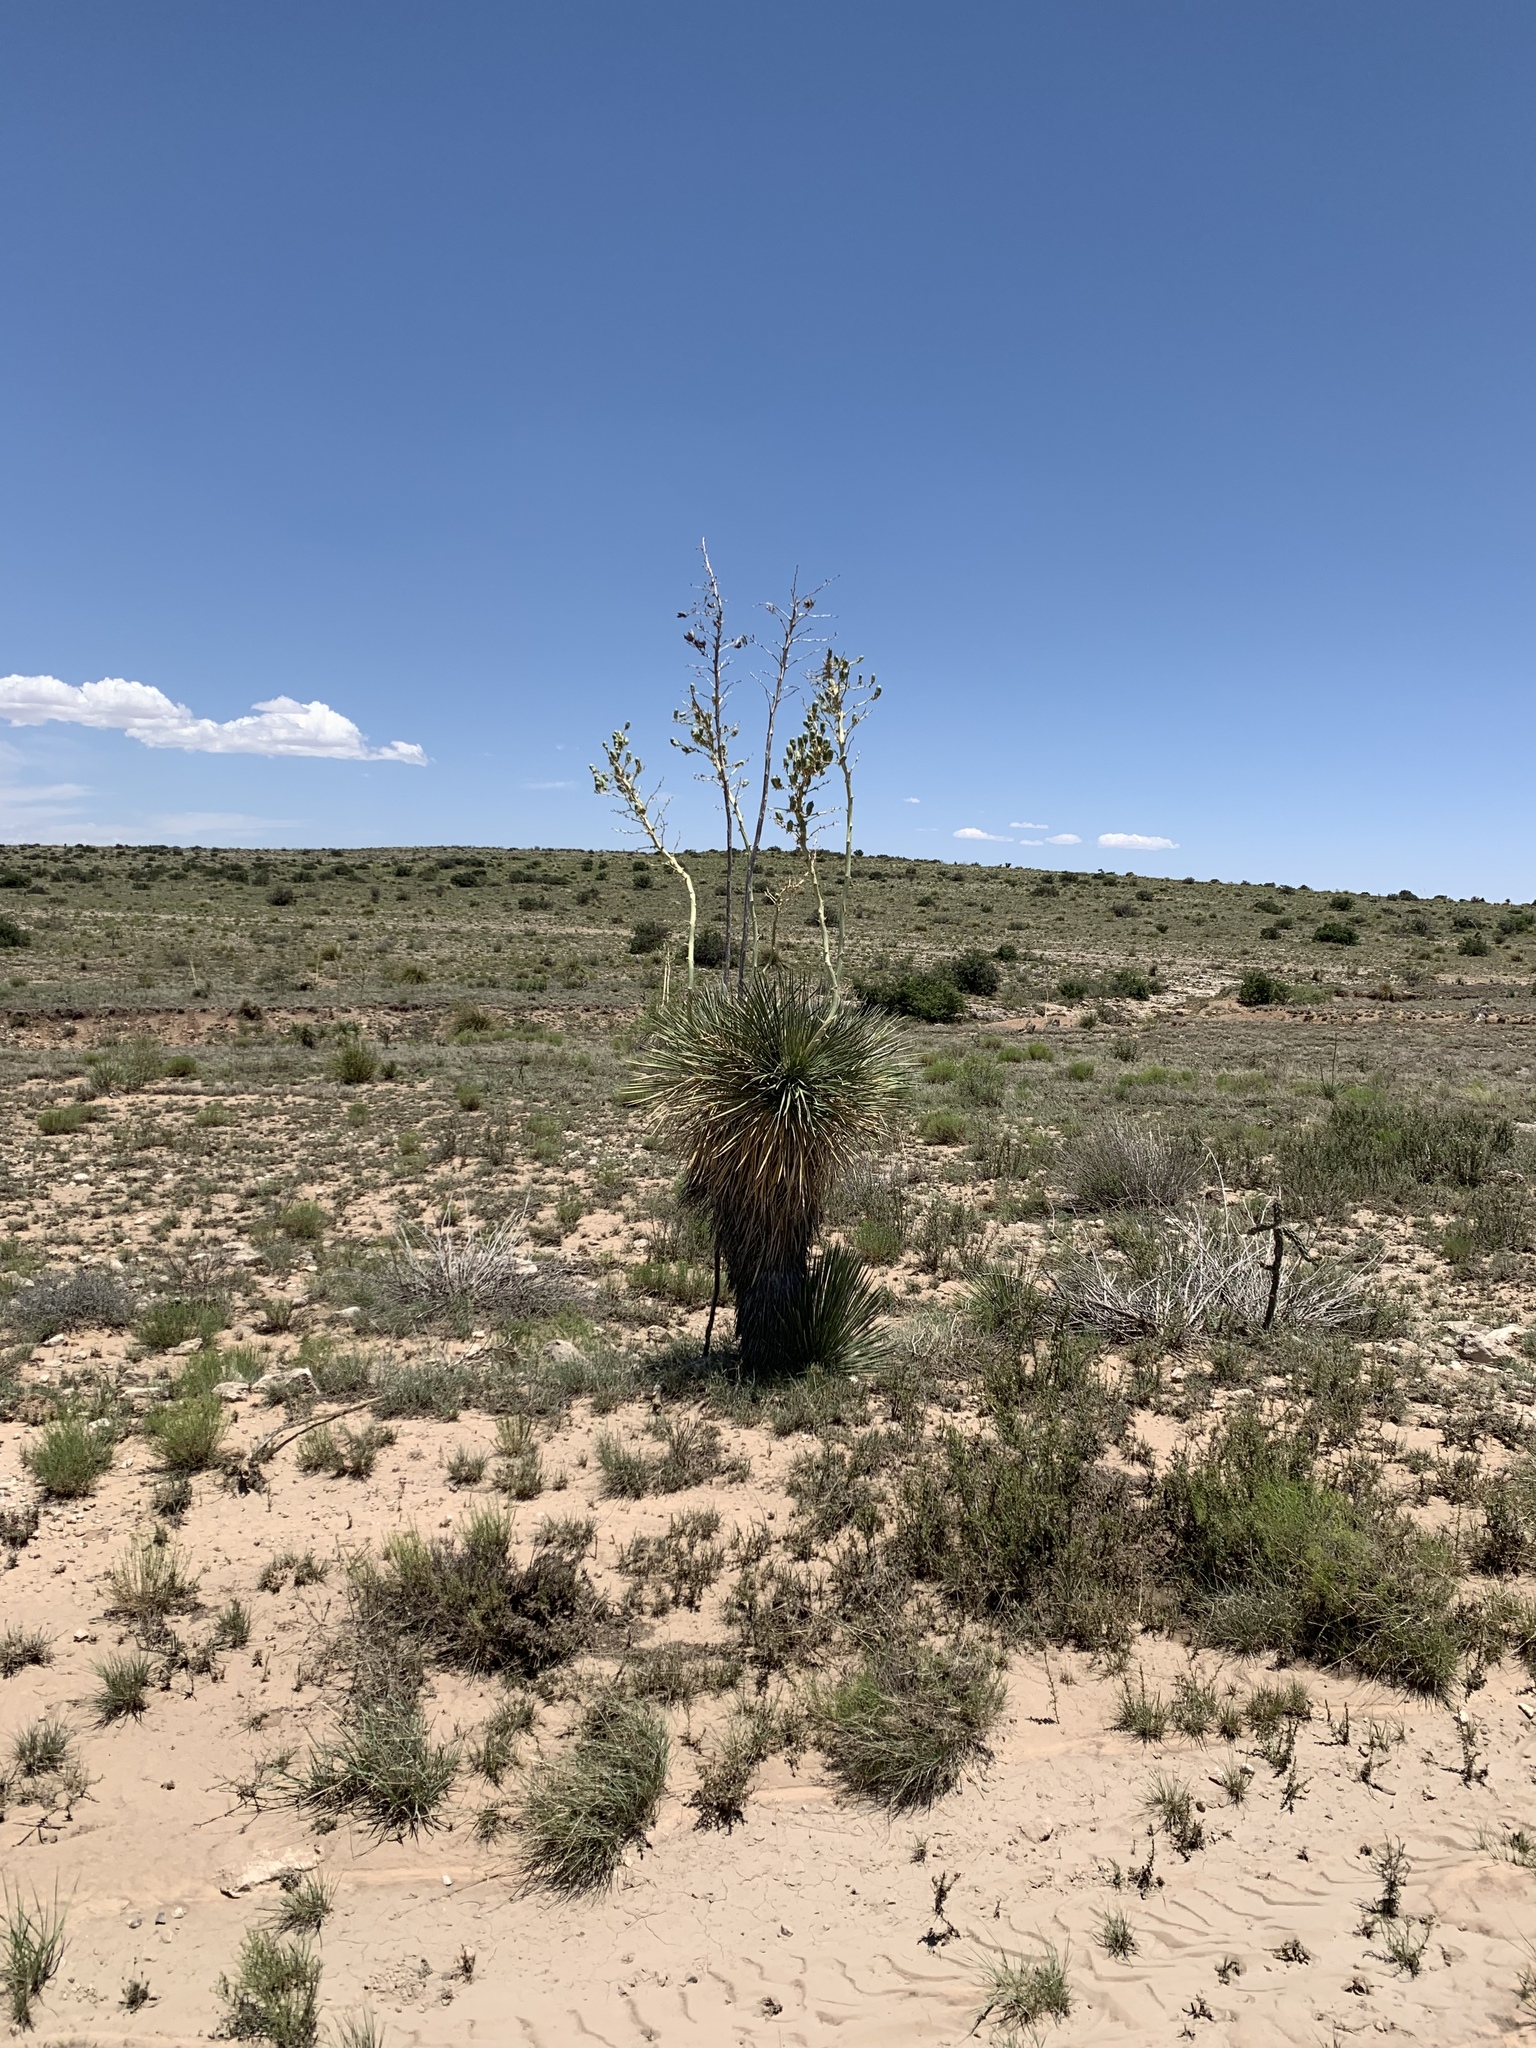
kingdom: Plantae
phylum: Tracheophyta
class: Liliopsida
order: Asparagales
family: Asparagaceae
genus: Yucca
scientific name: Yucca elata
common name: Palmella
